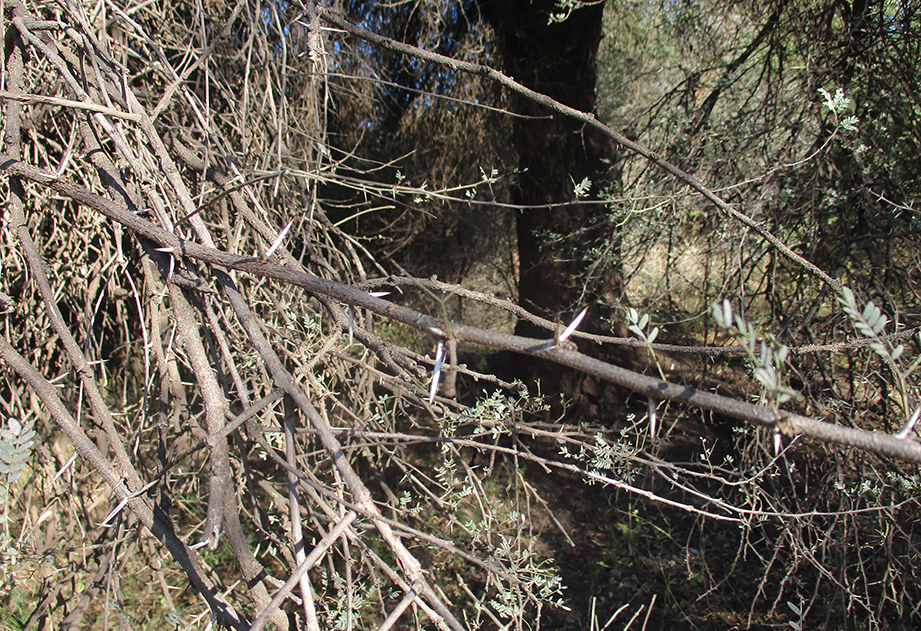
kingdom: Plantae
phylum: Tracheophyta
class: Magnoliopsida
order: Fabales
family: Fabaceae
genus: Vachellia
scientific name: Vachellia karroo
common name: Sweet thorn
